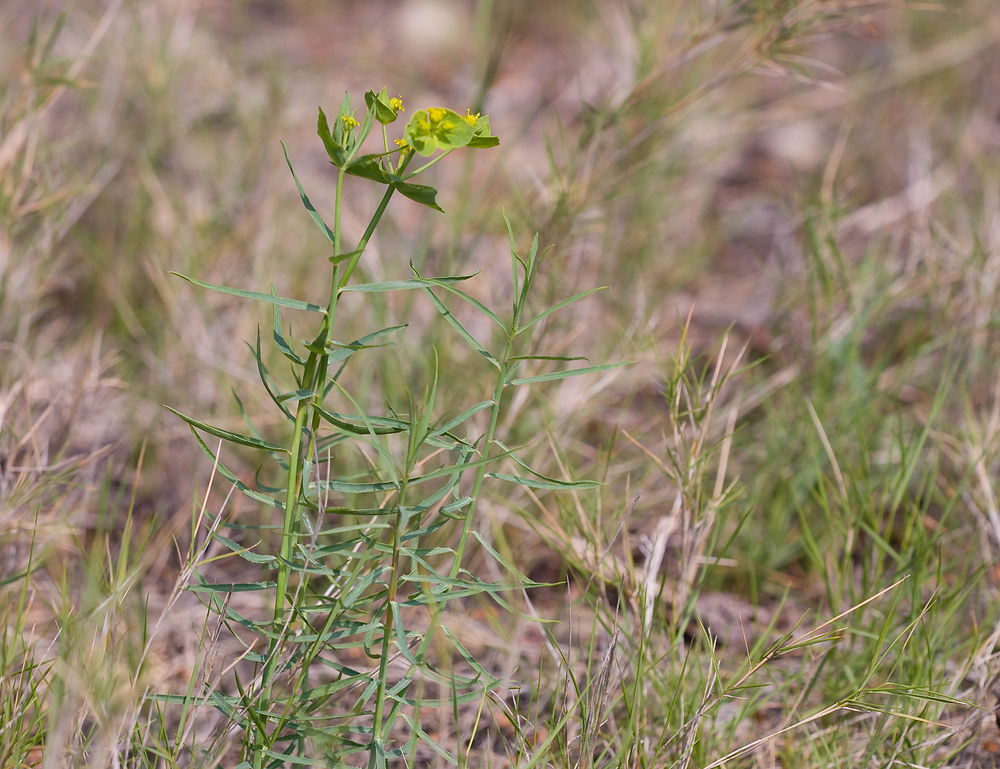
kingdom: Plantae
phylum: Tracheophyta
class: Magnoliopsida
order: Malpighiales
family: Euphorbiaceae
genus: Euphorbia
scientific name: Euphorbia serrata
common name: Serrate spurge
